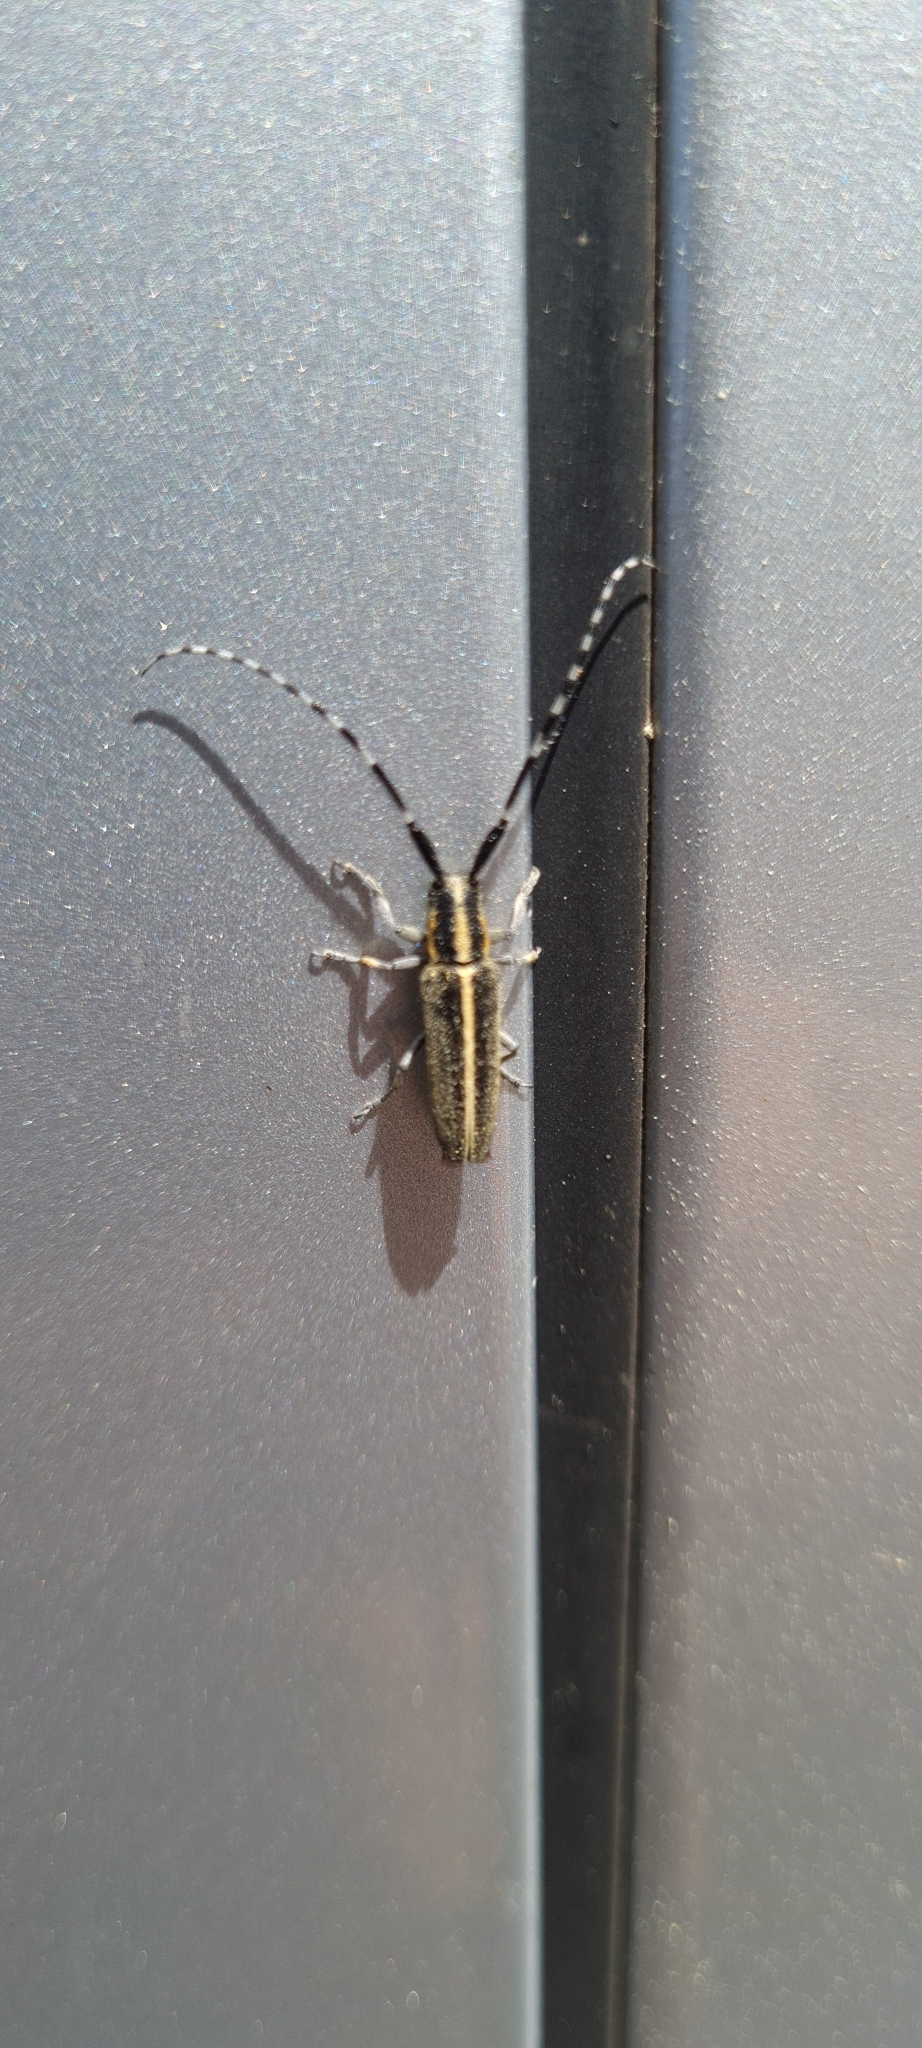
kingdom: Animalia
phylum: Arthropoda
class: Insecta
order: Coleoptera
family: Cerambycidae
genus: Agapanthia
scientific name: Agapanthia cardui
